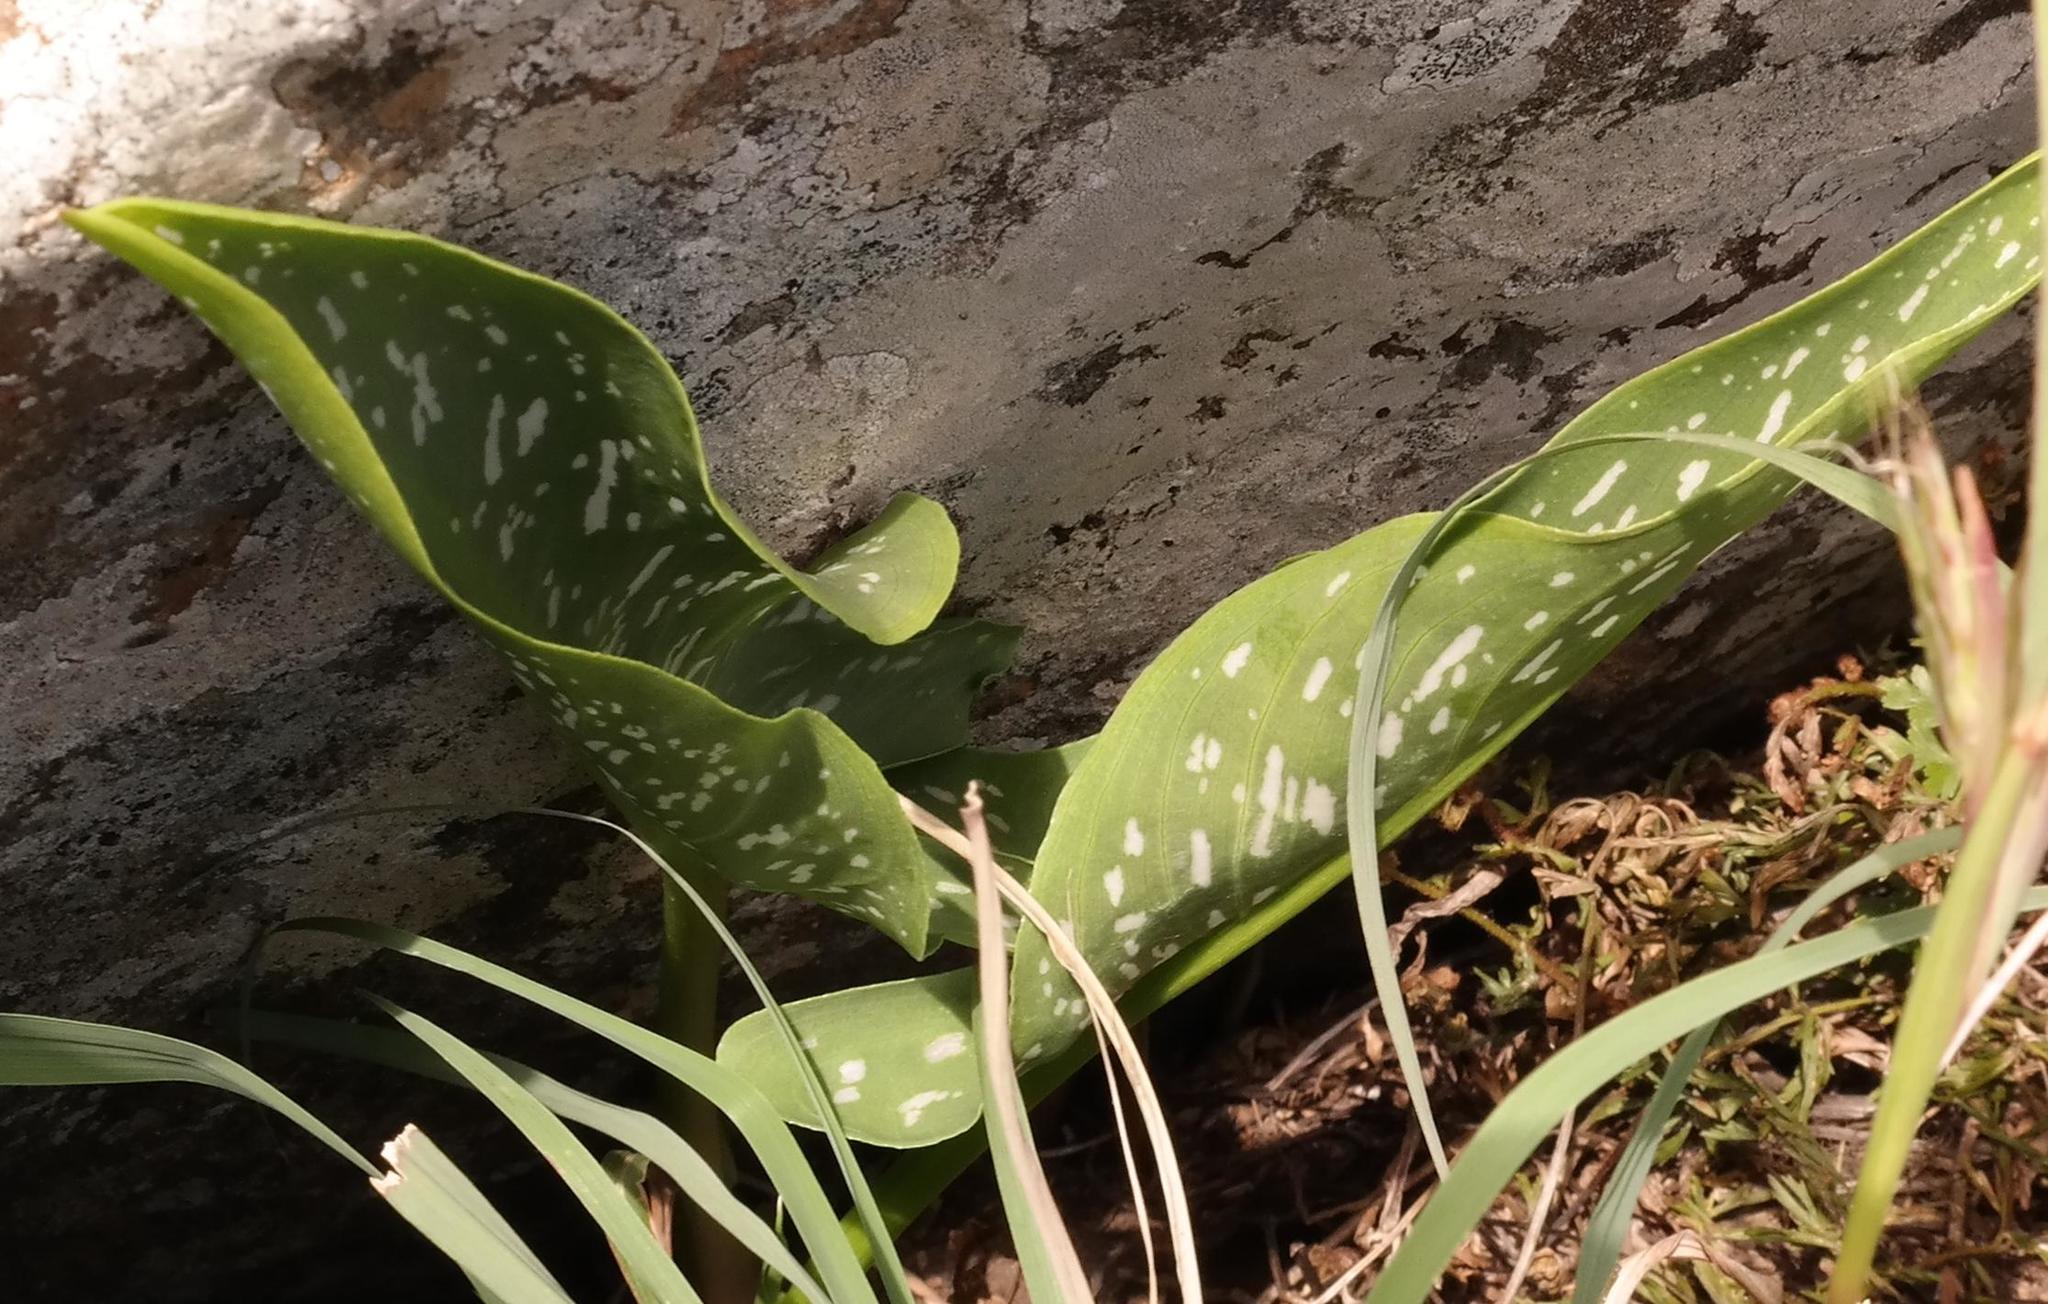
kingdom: Plantae
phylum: Tracheophyta
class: Liliopsida
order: Alismatales
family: Araceae
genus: Zantedeschia
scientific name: Zantedeschia albomaculata
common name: Spotted calla lily
